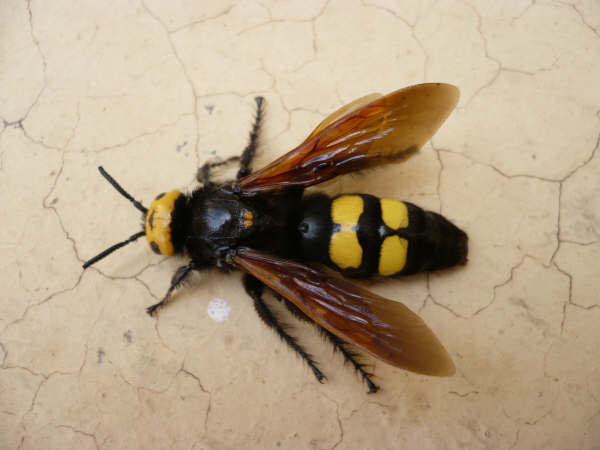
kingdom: Animalia
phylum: Arthropoda
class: Insecta
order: Hymenoptera
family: Scoliidae
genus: Megascolia
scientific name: Megascolia maculata
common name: Mammoth wasp
